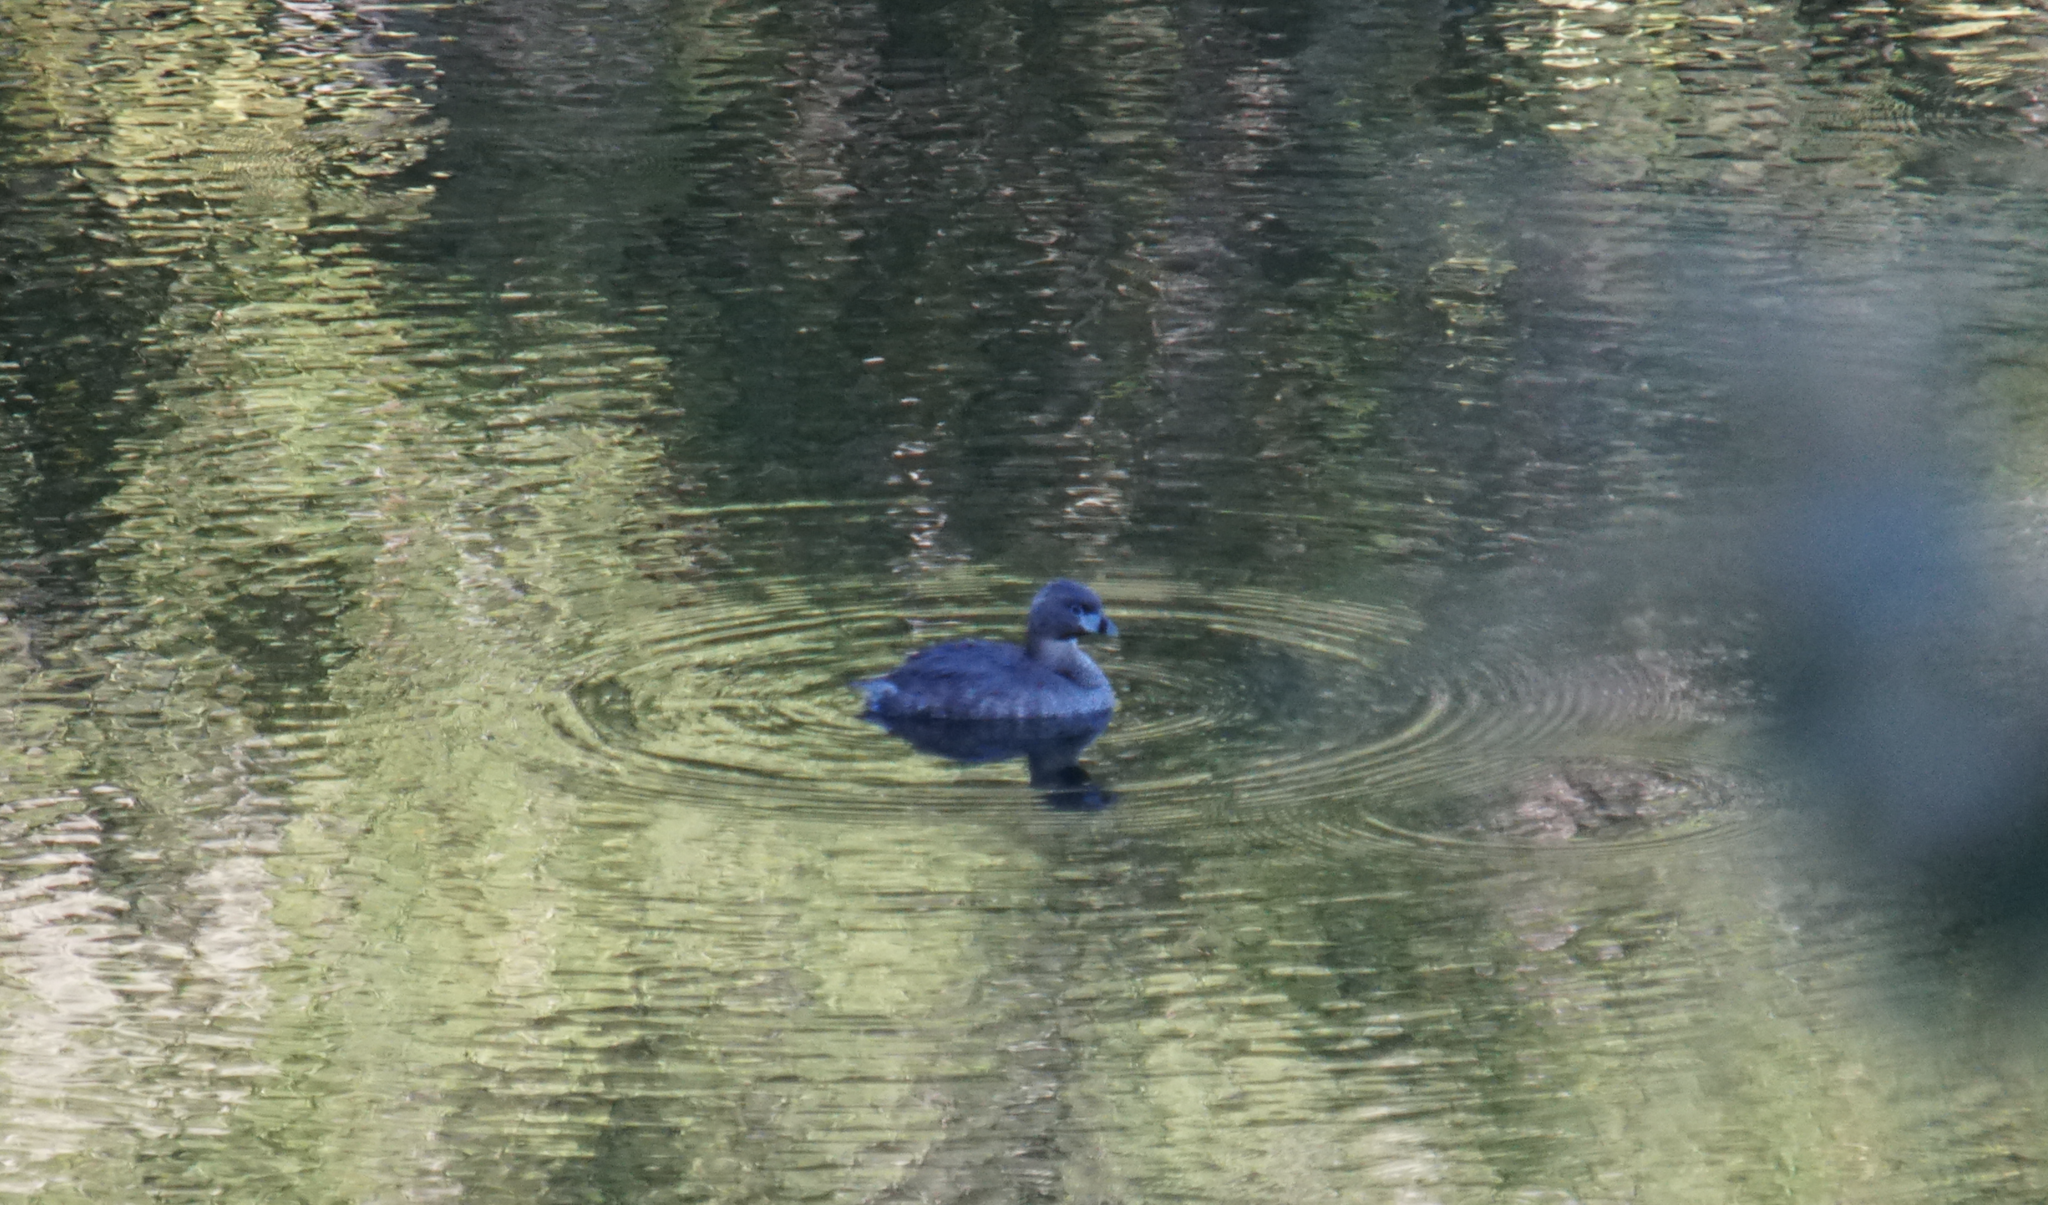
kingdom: Animalia
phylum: Chordata
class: Aves
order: Podicipediformes
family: Podicipedidae
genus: Podilymbus
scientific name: Podilymbus podiceps
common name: Pied-billed grebe
